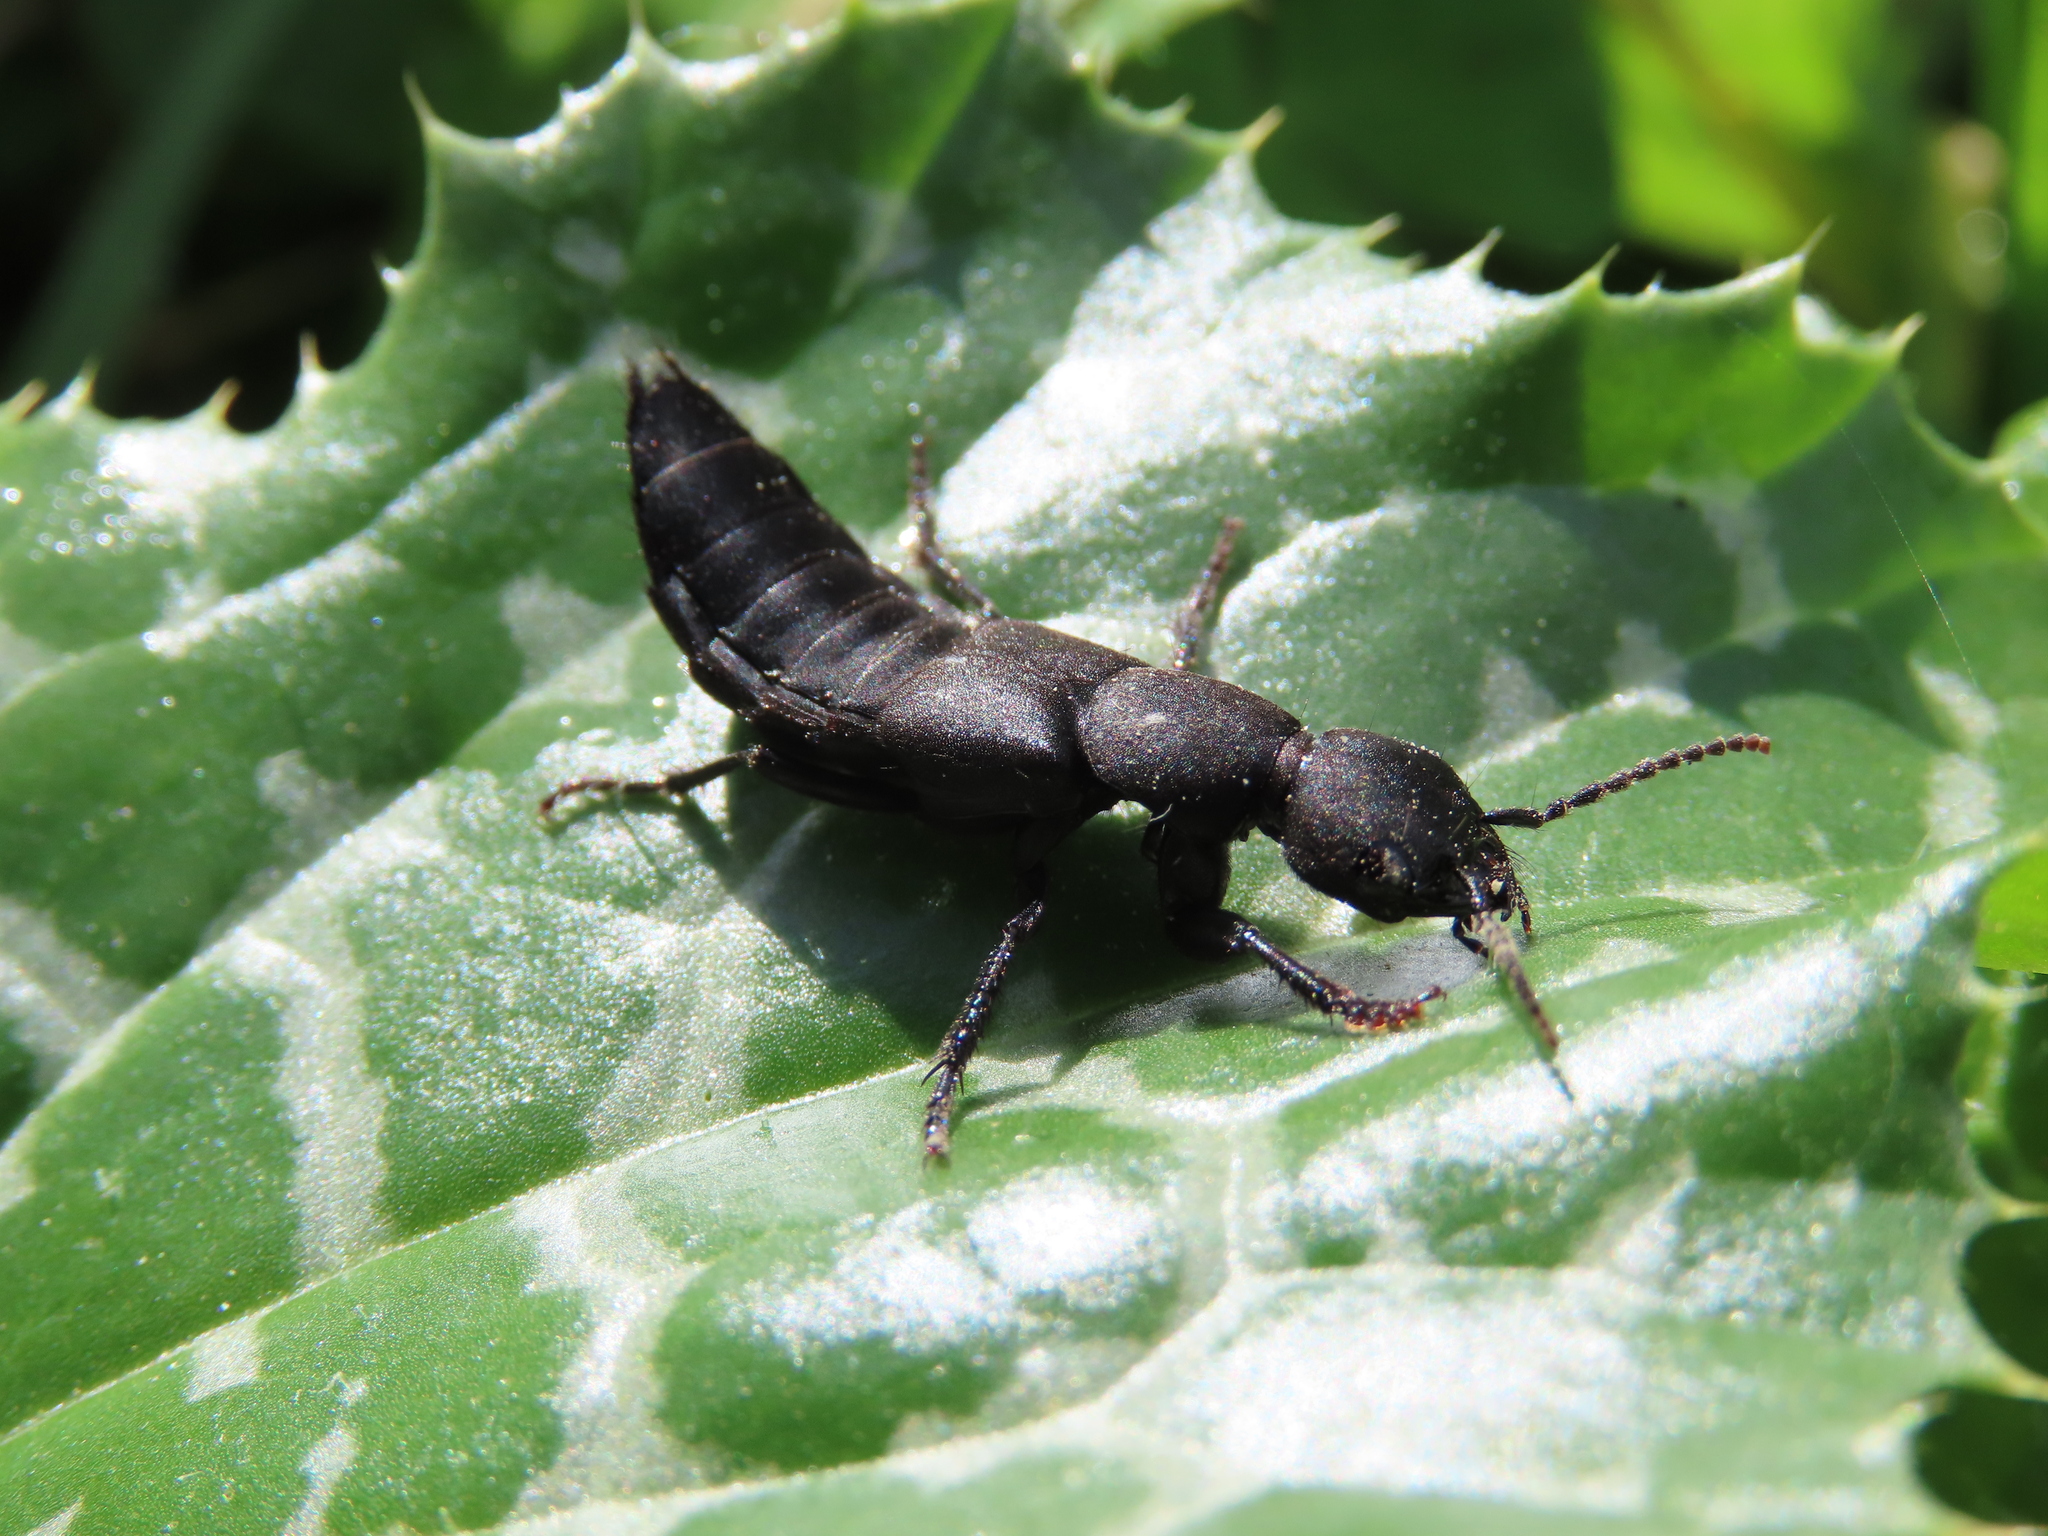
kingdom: Animalia
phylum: Arthropoda
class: Insecta
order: Coleoptera
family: Staphylinidae
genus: Ocypus
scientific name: Ocypus olens
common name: Devil's coach-horse
